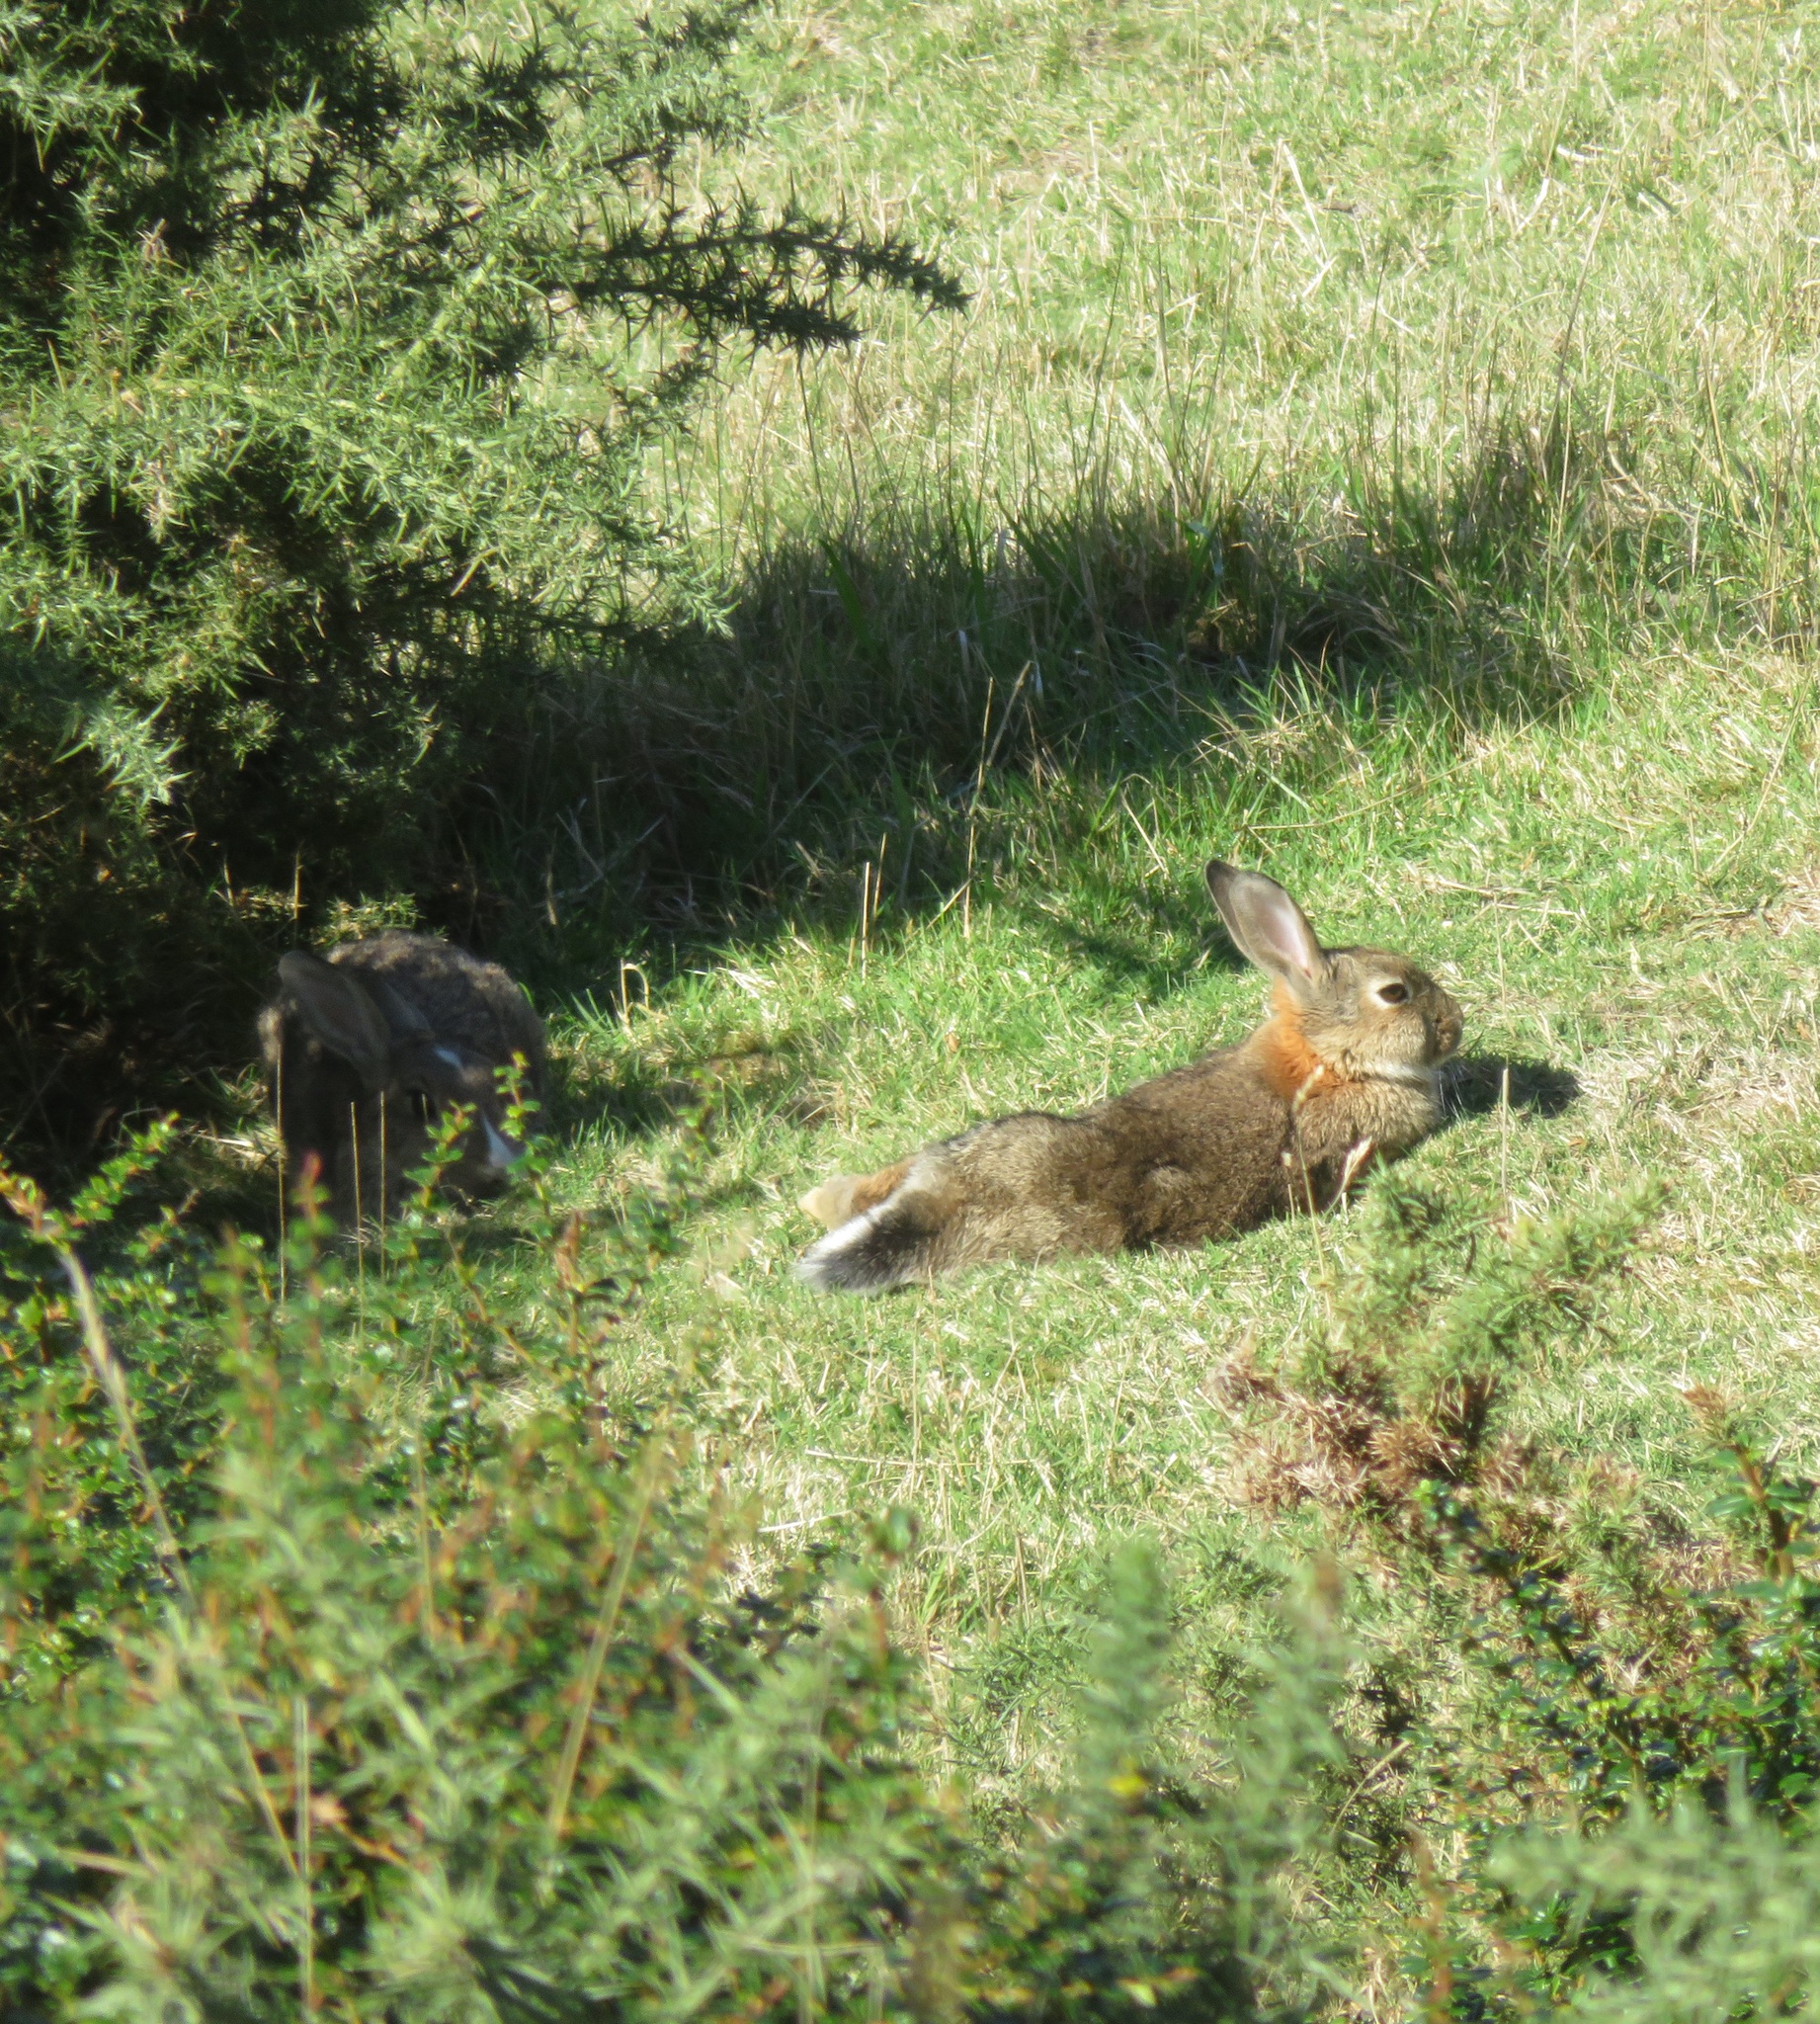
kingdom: Animalia
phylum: Chordata
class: Mammalia
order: Lagomorpha
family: Leporidae
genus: Oryctolagus
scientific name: Oryctolagus cuniculus
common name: European rabbit
